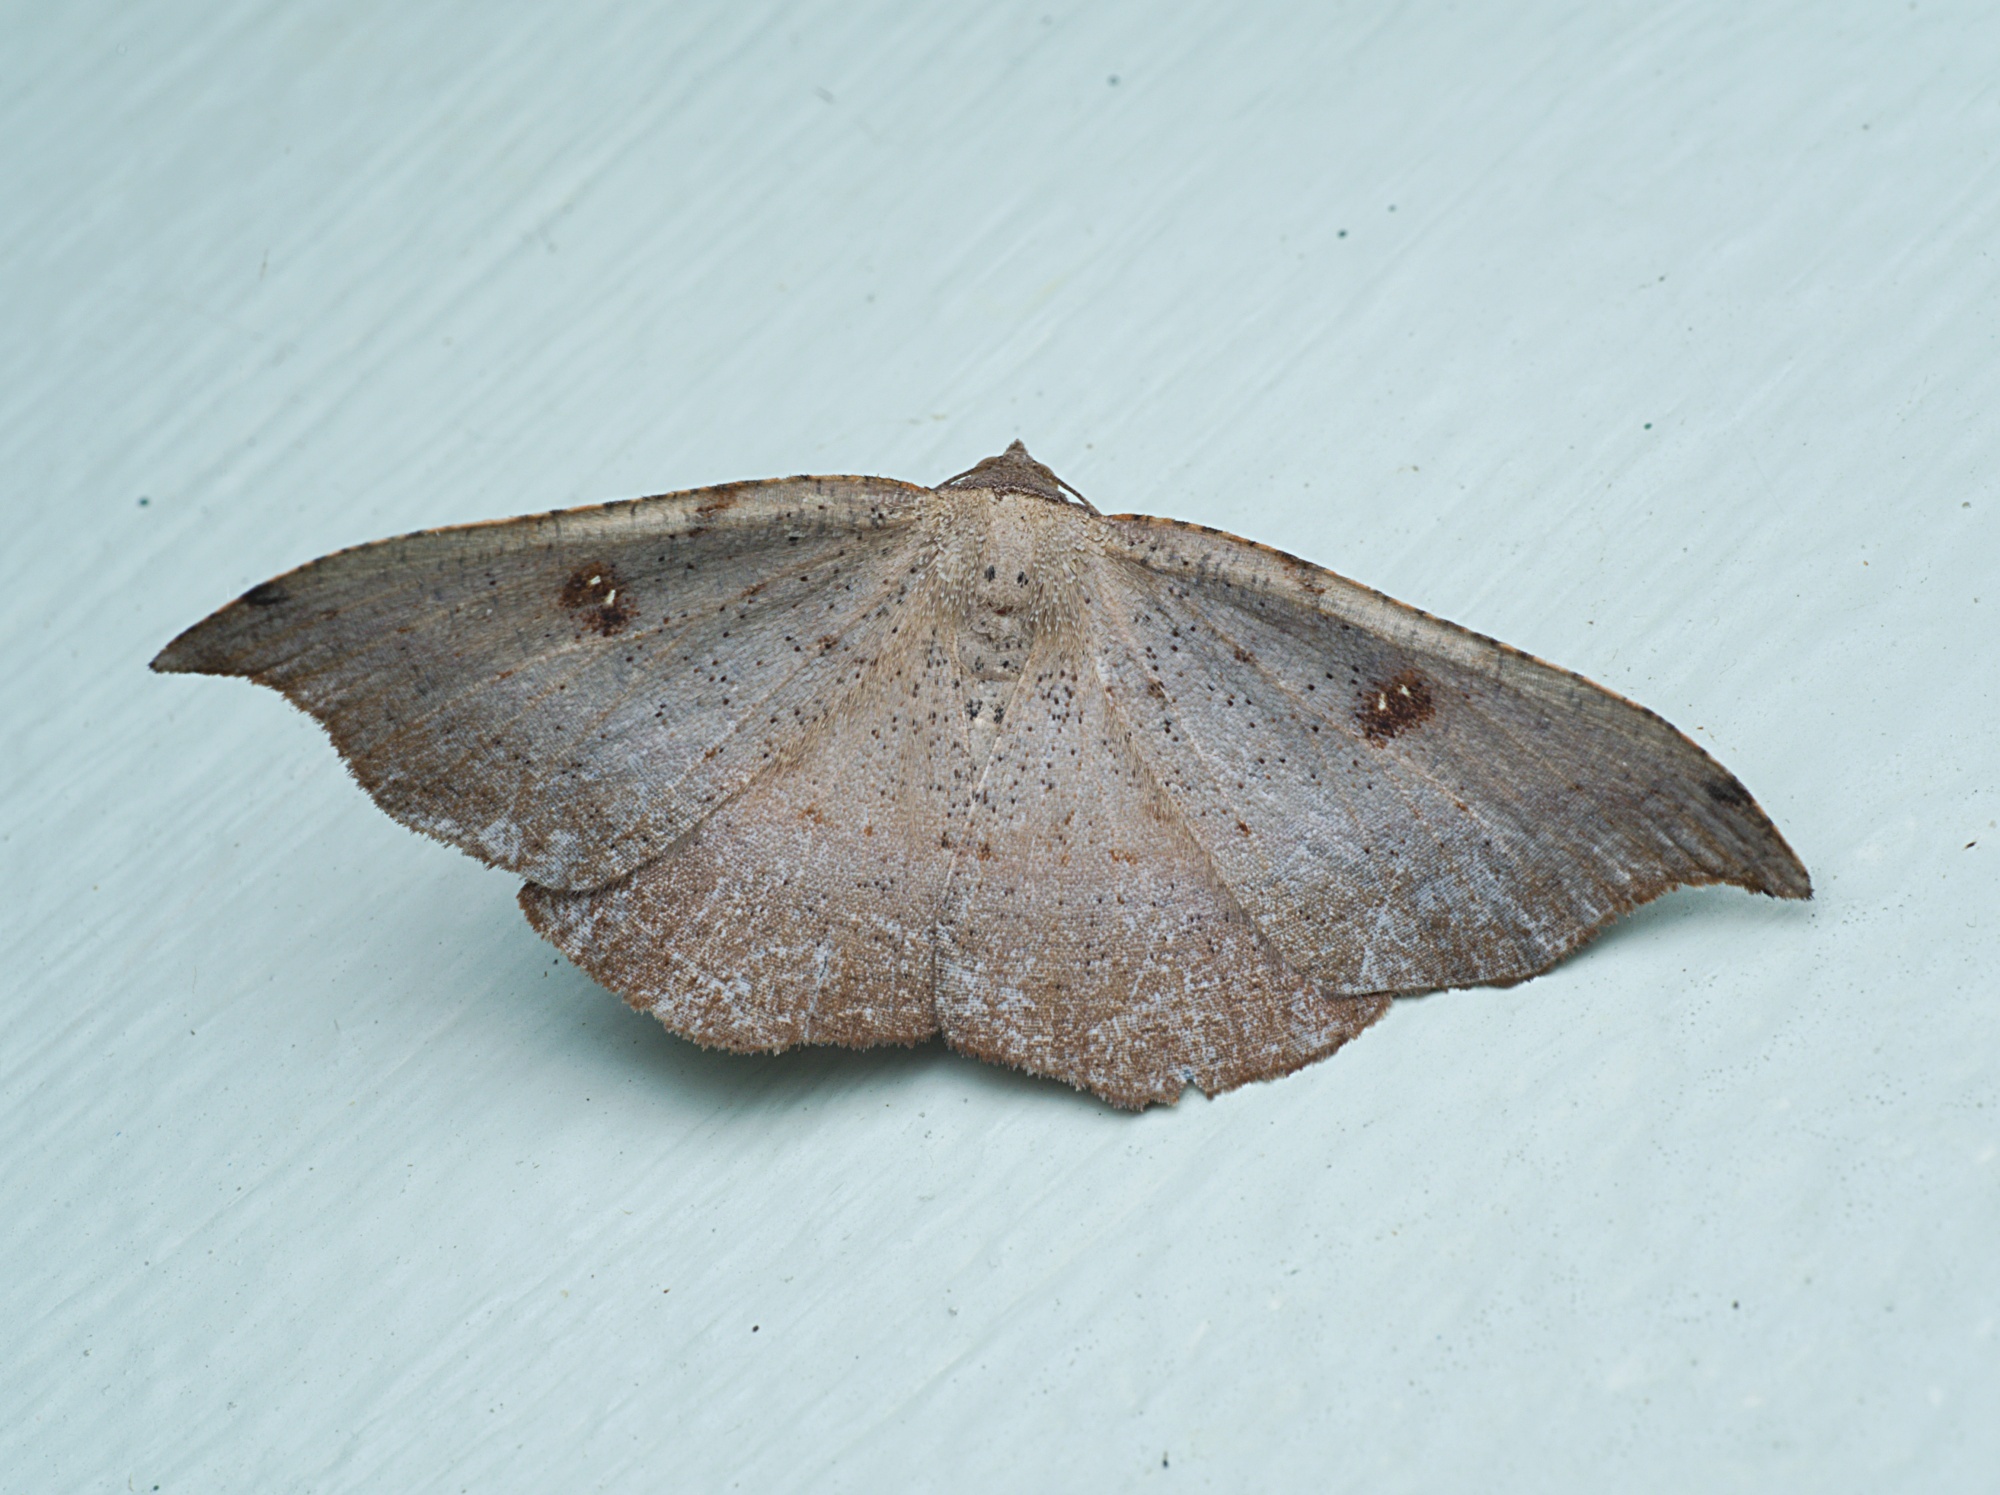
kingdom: Animalia
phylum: Arthropoda
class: Insecta
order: Lepidoptera
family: Geometridae
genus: Sarisa
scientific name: Sarisa muriferata
